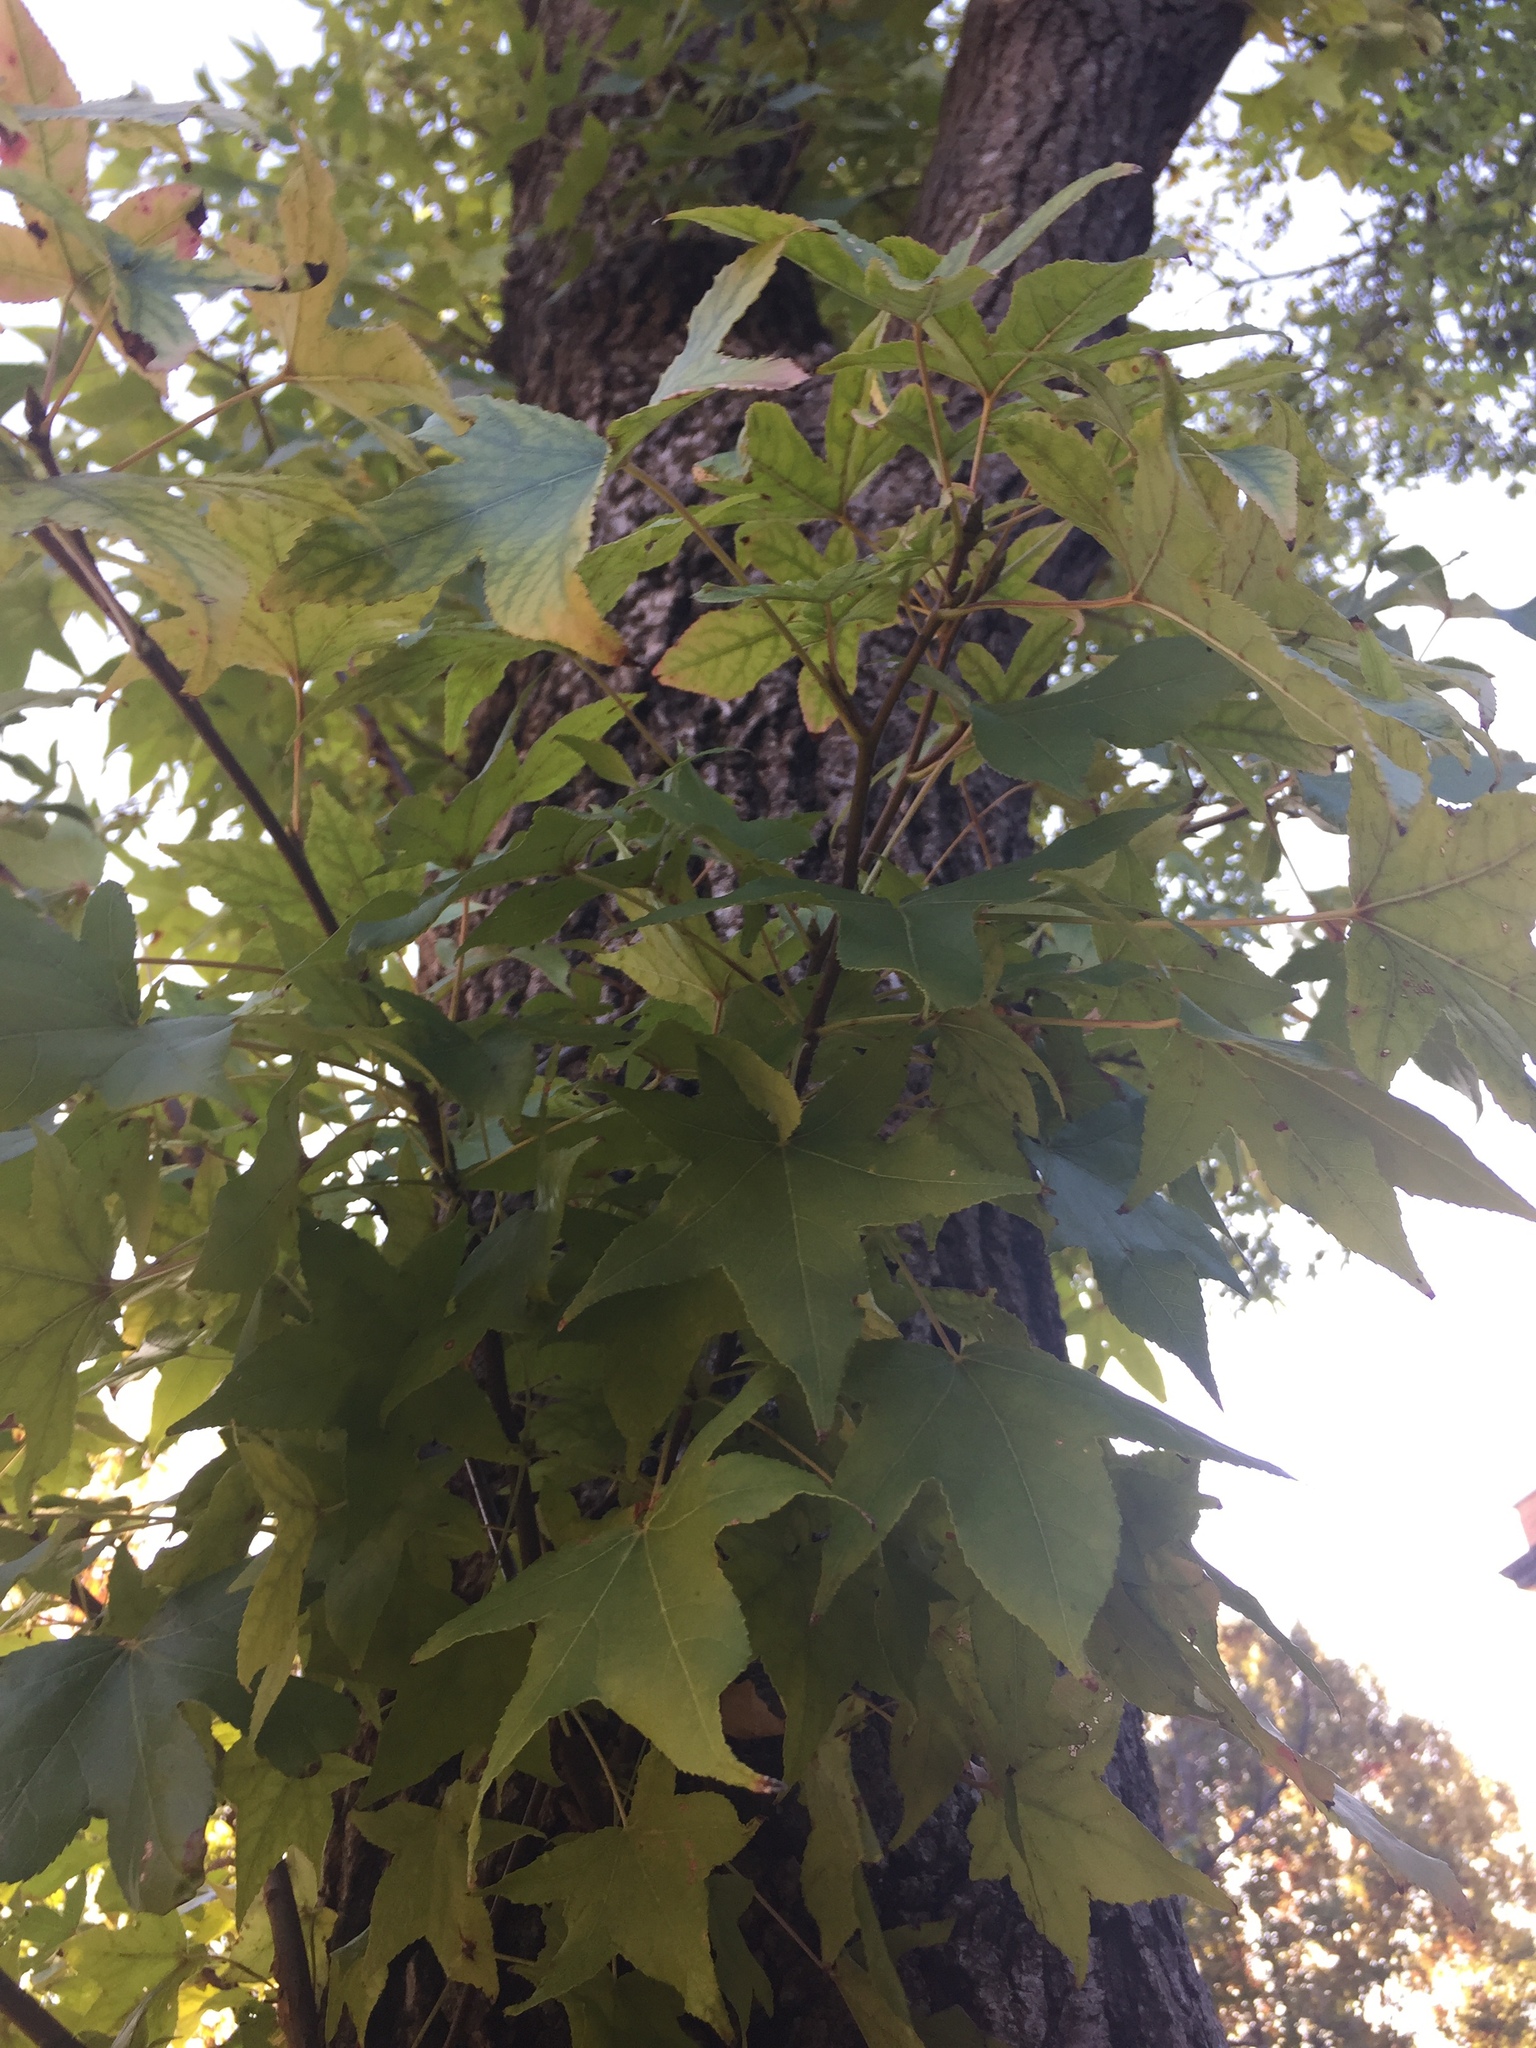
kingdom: Plantae
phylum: Tracheophyta
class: Magnoliopsida
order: Saxifragales
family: Altingiaceae
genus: Liquidambar
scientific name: Liquidambar styraciflua
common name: Sweet gum
